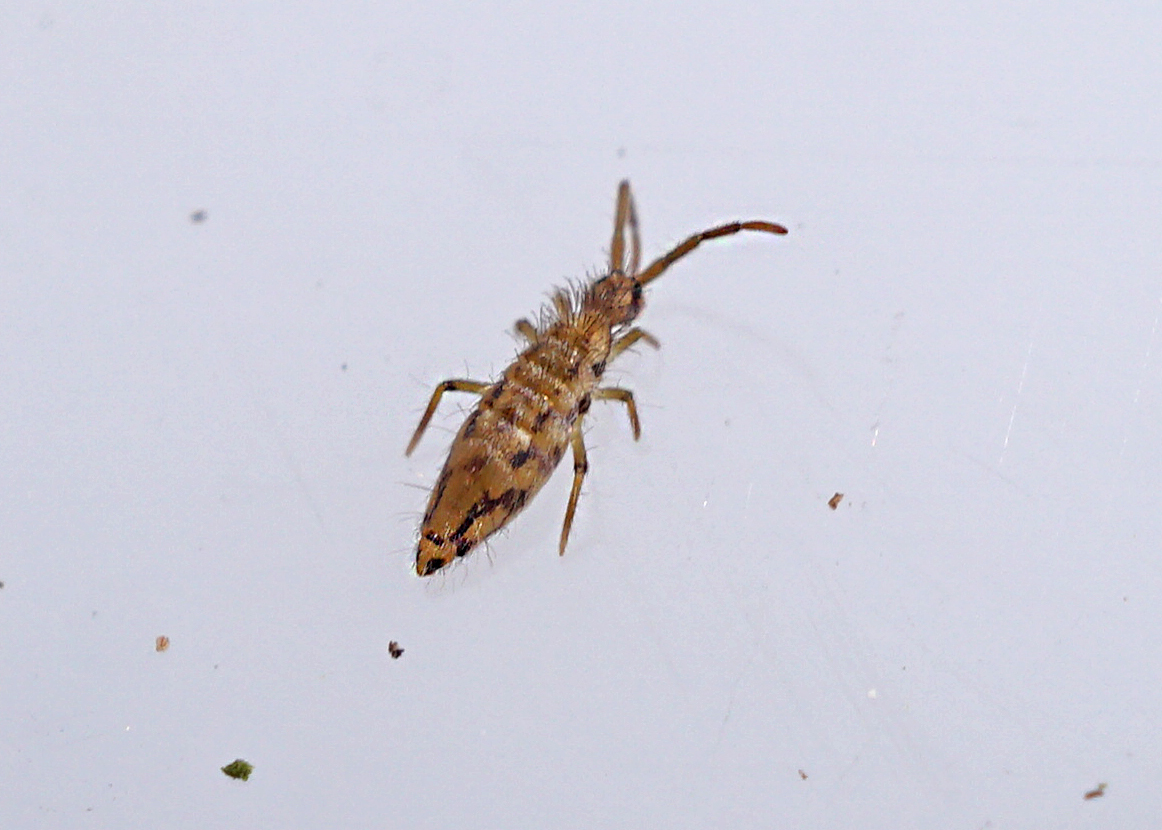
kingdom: Animalia
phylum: Arthropoda
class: Collembola
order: Entomobryomorpha
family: Entomobryidae
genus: Entomobrya
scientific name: Entomobrya intermedia
